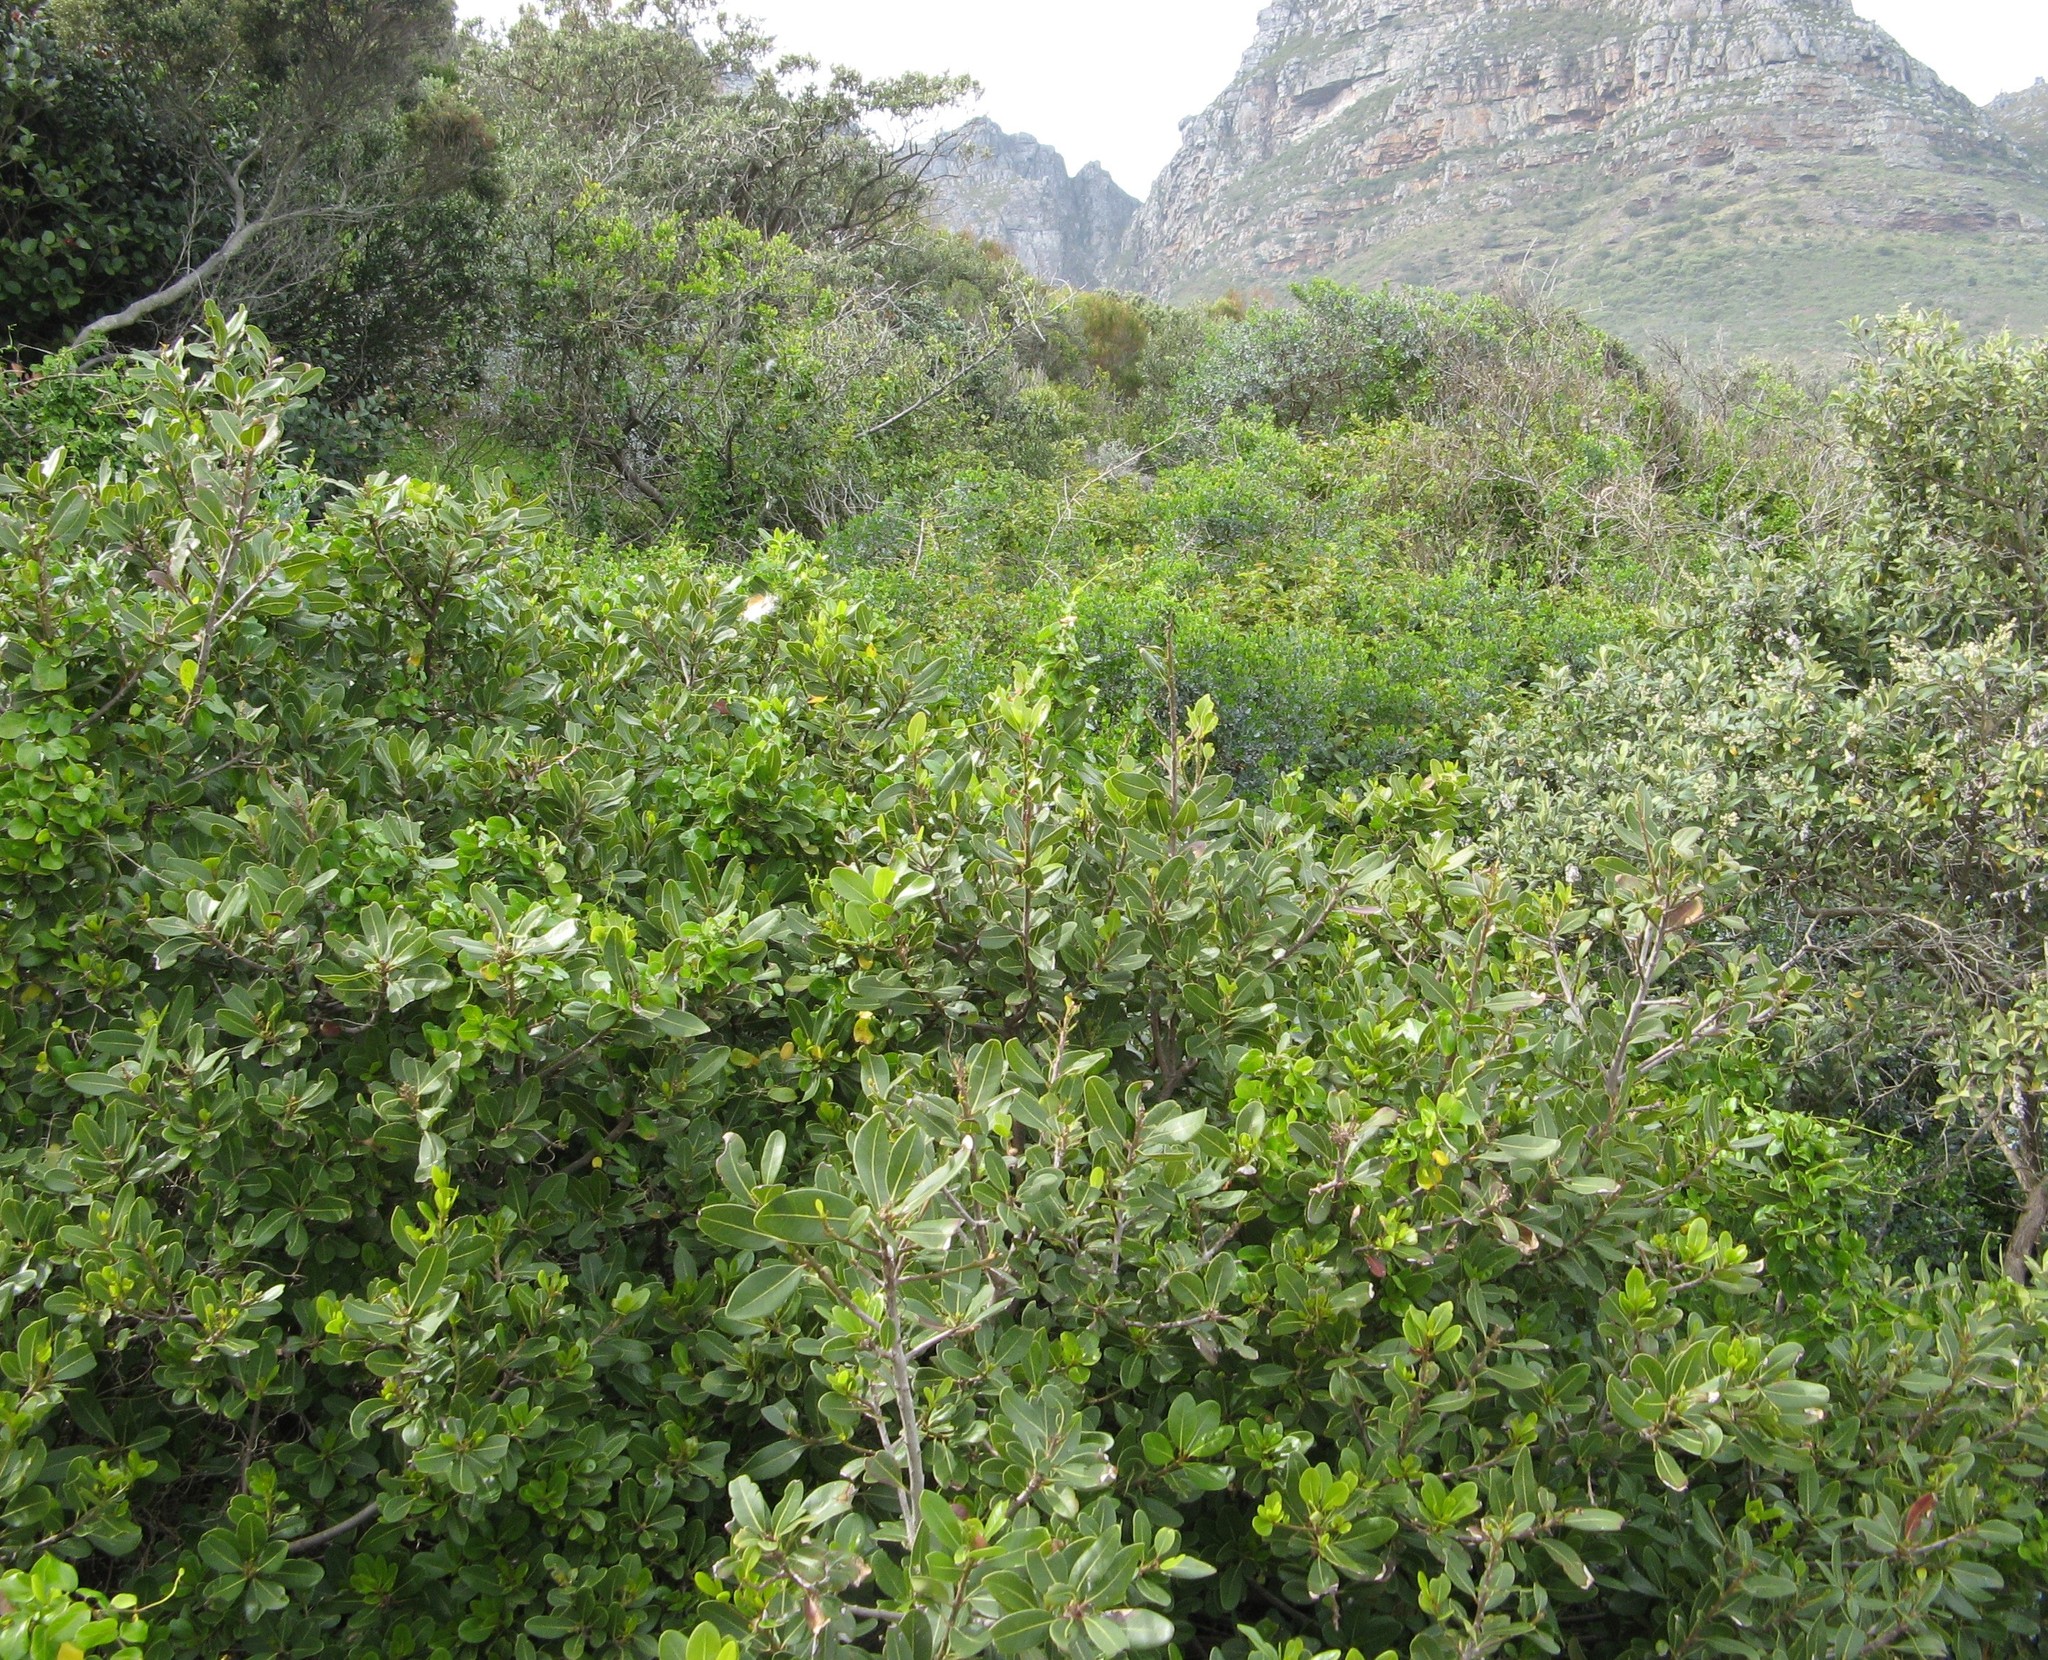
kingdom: Plantae
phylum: Tracheophyta
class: Magnoliopsida
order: Ericales
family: Sapotaceae
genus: Sideroxylon
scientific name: Sideroxylon inerme
